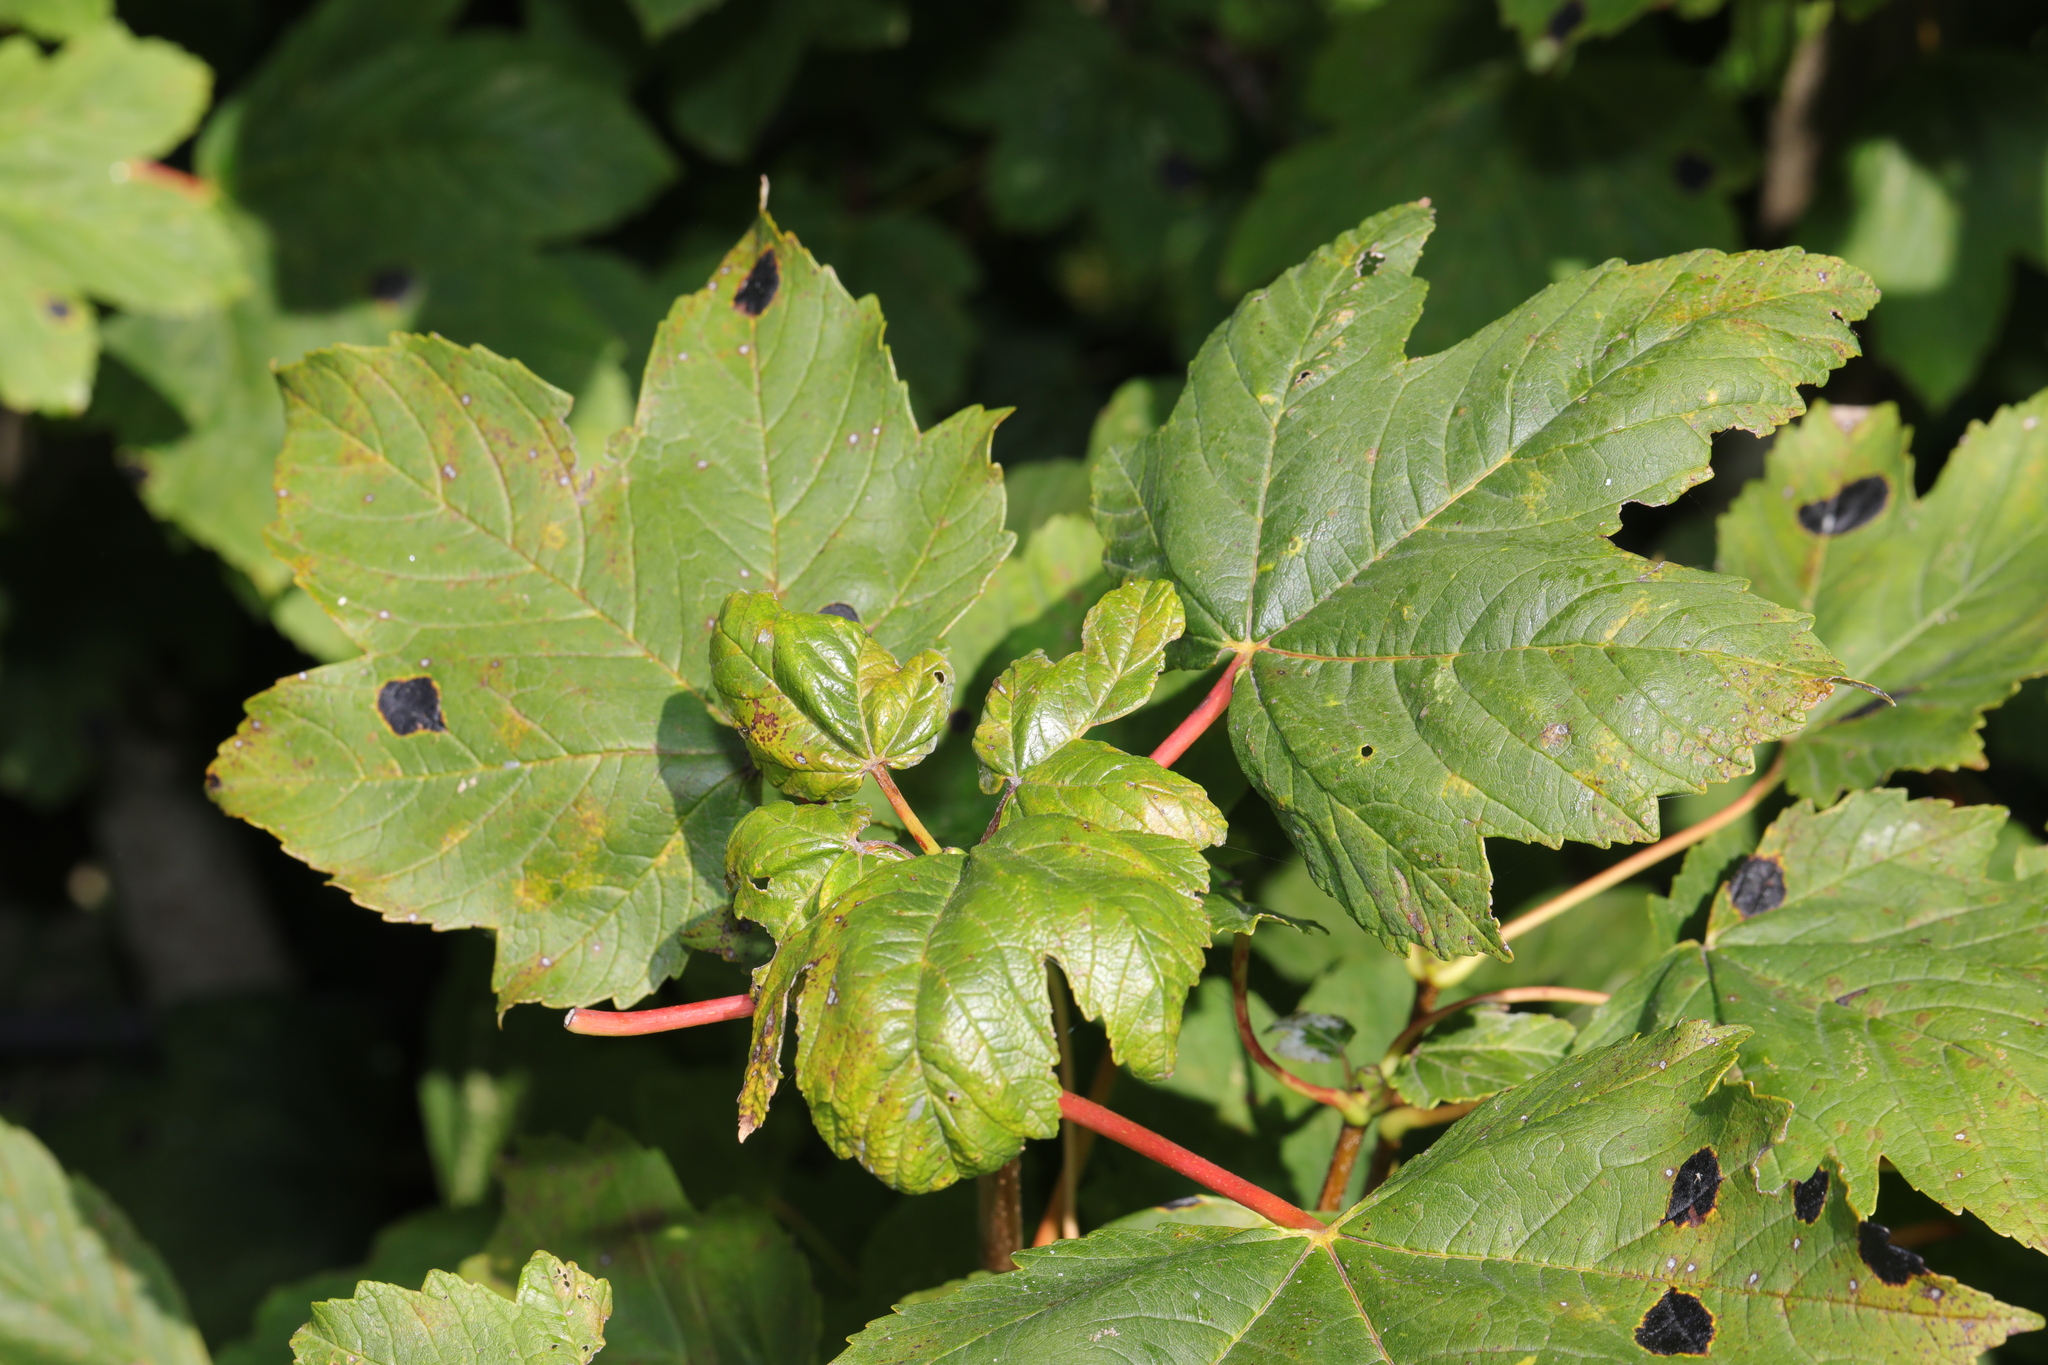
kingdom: Plantae
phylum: Tracheophyta
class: Magnoliopsida
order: Sapindales
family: Sapindaceae
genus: Acer
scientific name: Acer pseudoplatanus
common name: Sycamore
